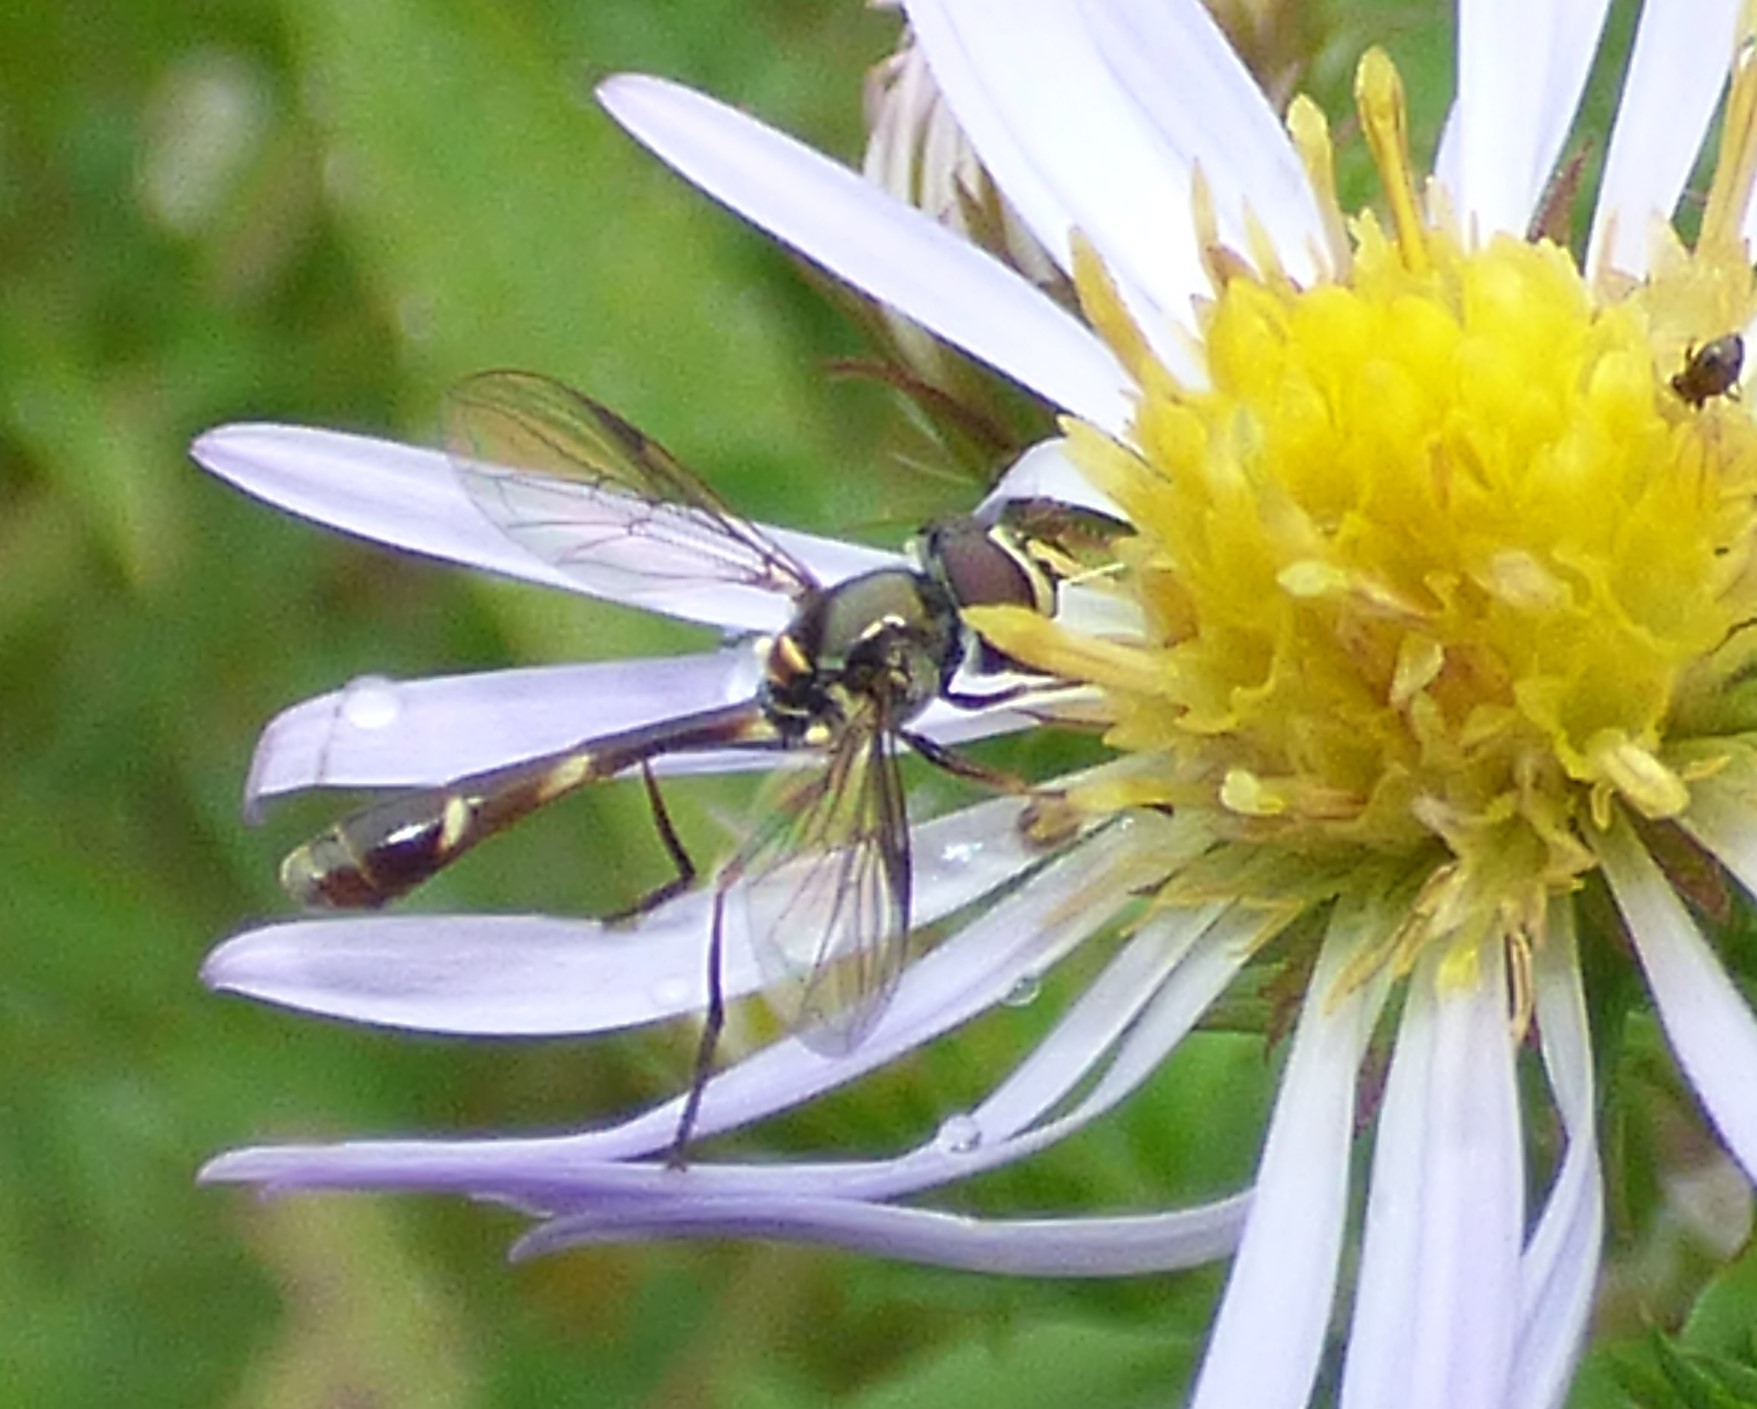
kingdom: Animalia
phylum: Arthropoda
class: Insecta
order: Diptera
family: Syrphidae
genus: Dioprosopa
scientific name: Dioprosopa clavatus
